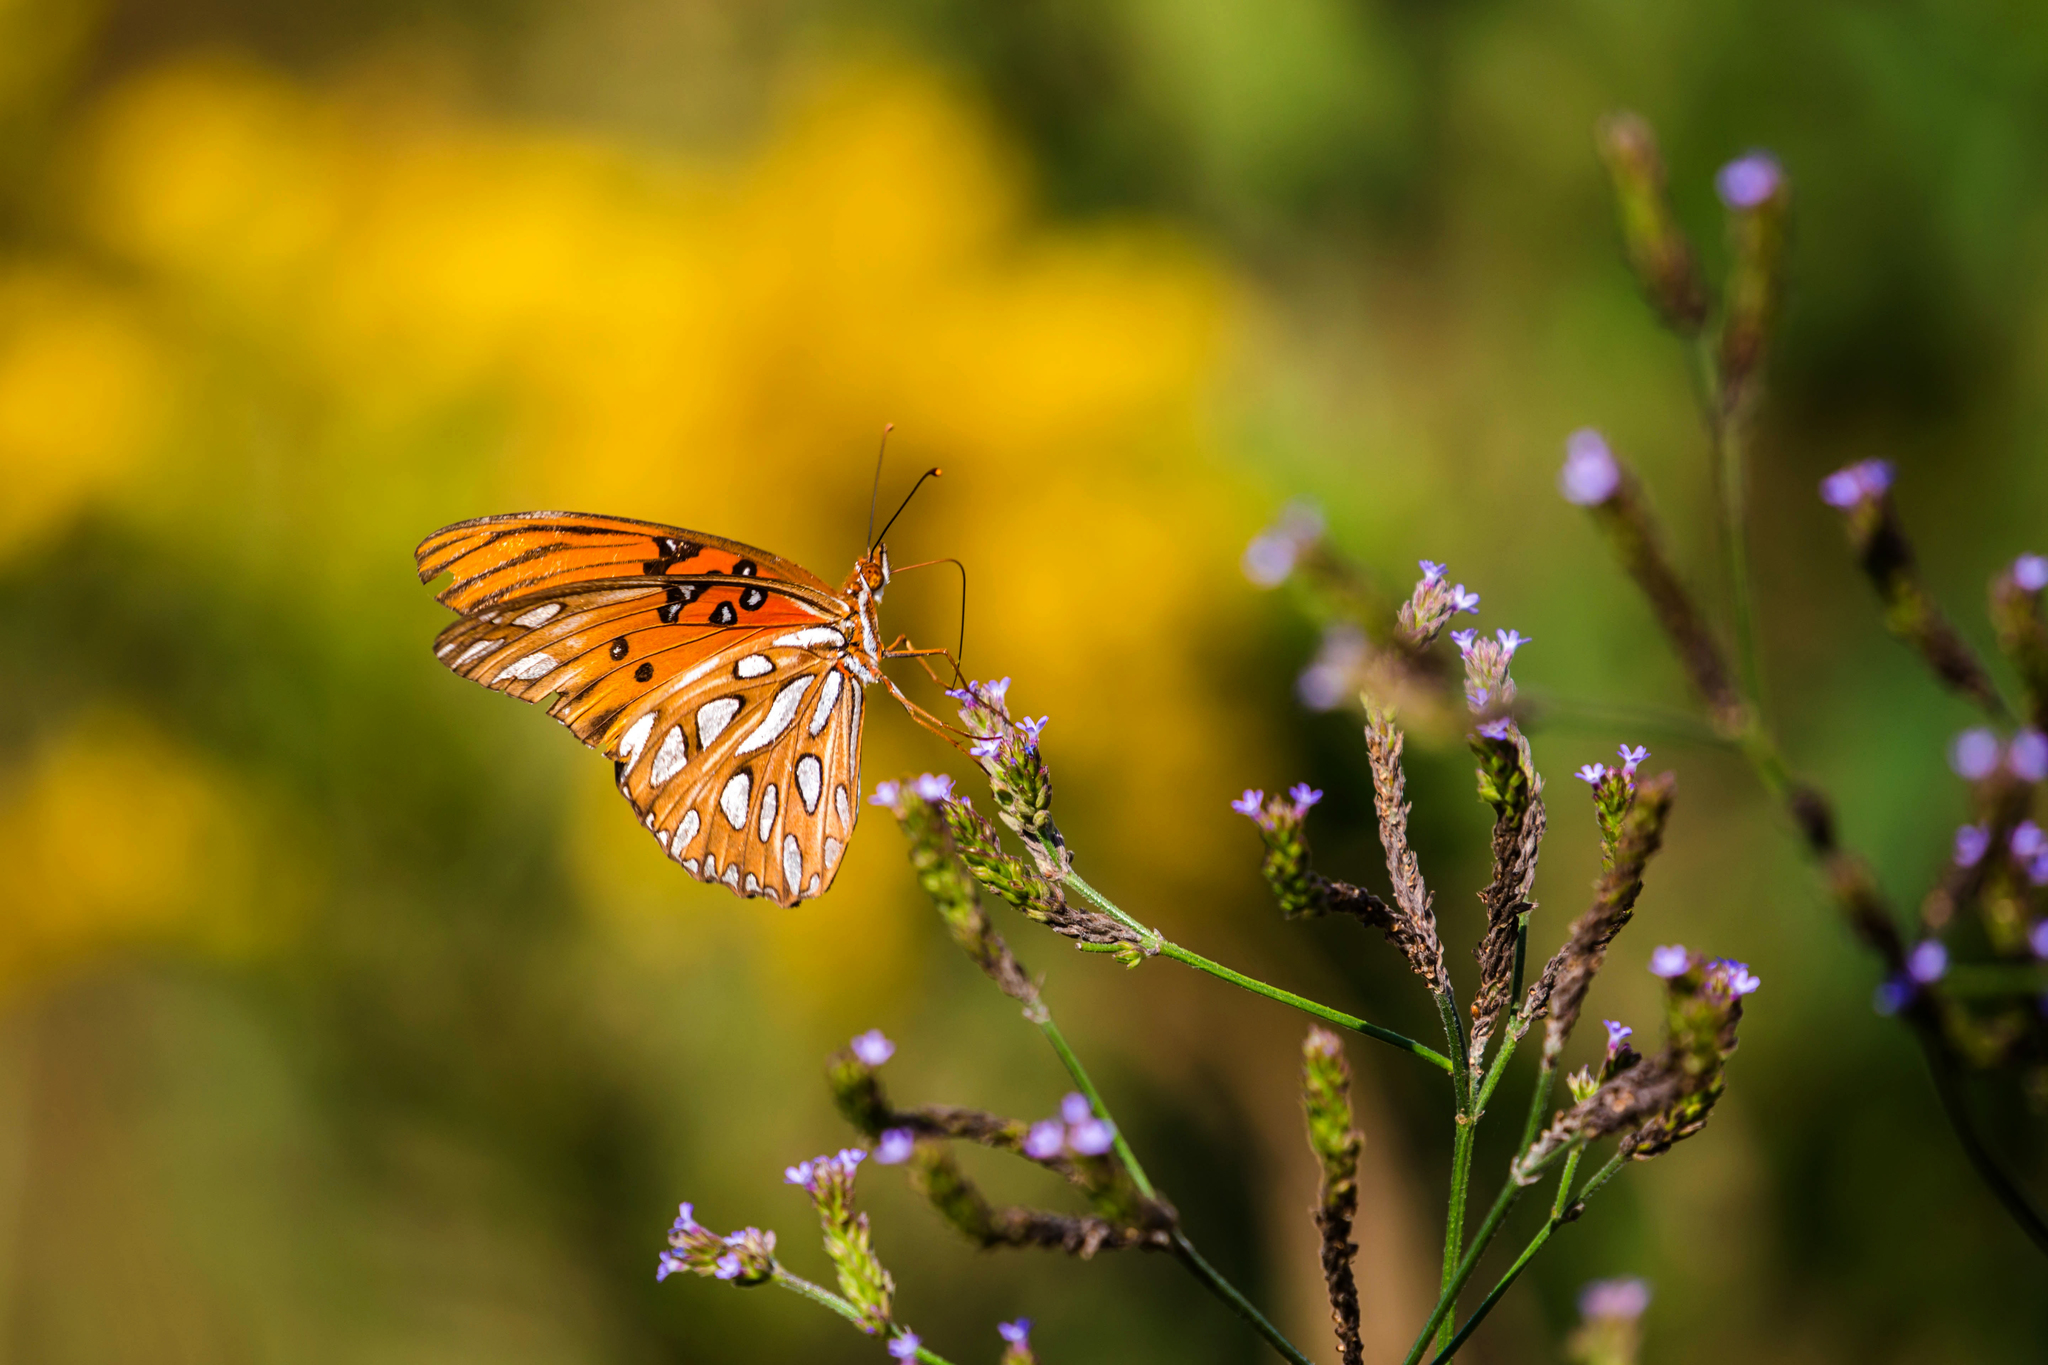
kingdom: Animalia
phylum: Arthropoda
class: Insecta
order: Lepidoptera
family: Nymphalidae
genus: Dione
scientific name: Dione vanillae
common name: Gulf fritillary
